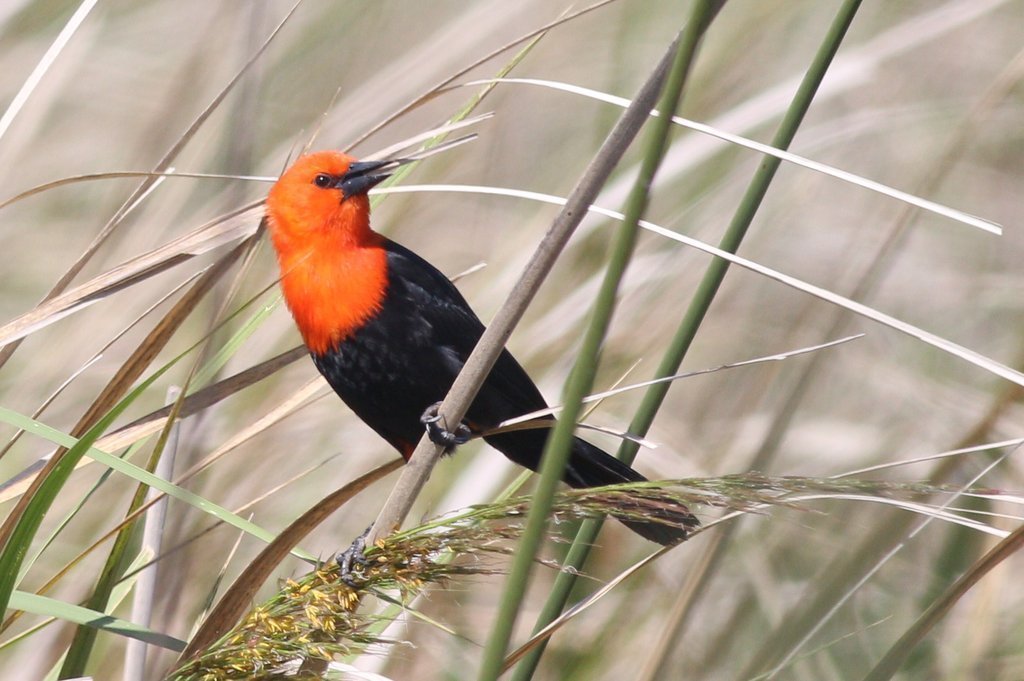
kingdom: Animalia
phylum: Chordata
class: Aves
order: Passeriformes
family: Icteridae
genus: Amblyramphus
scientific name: Amblyramphus holosericeus
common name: Scarlet-headed blackbird
